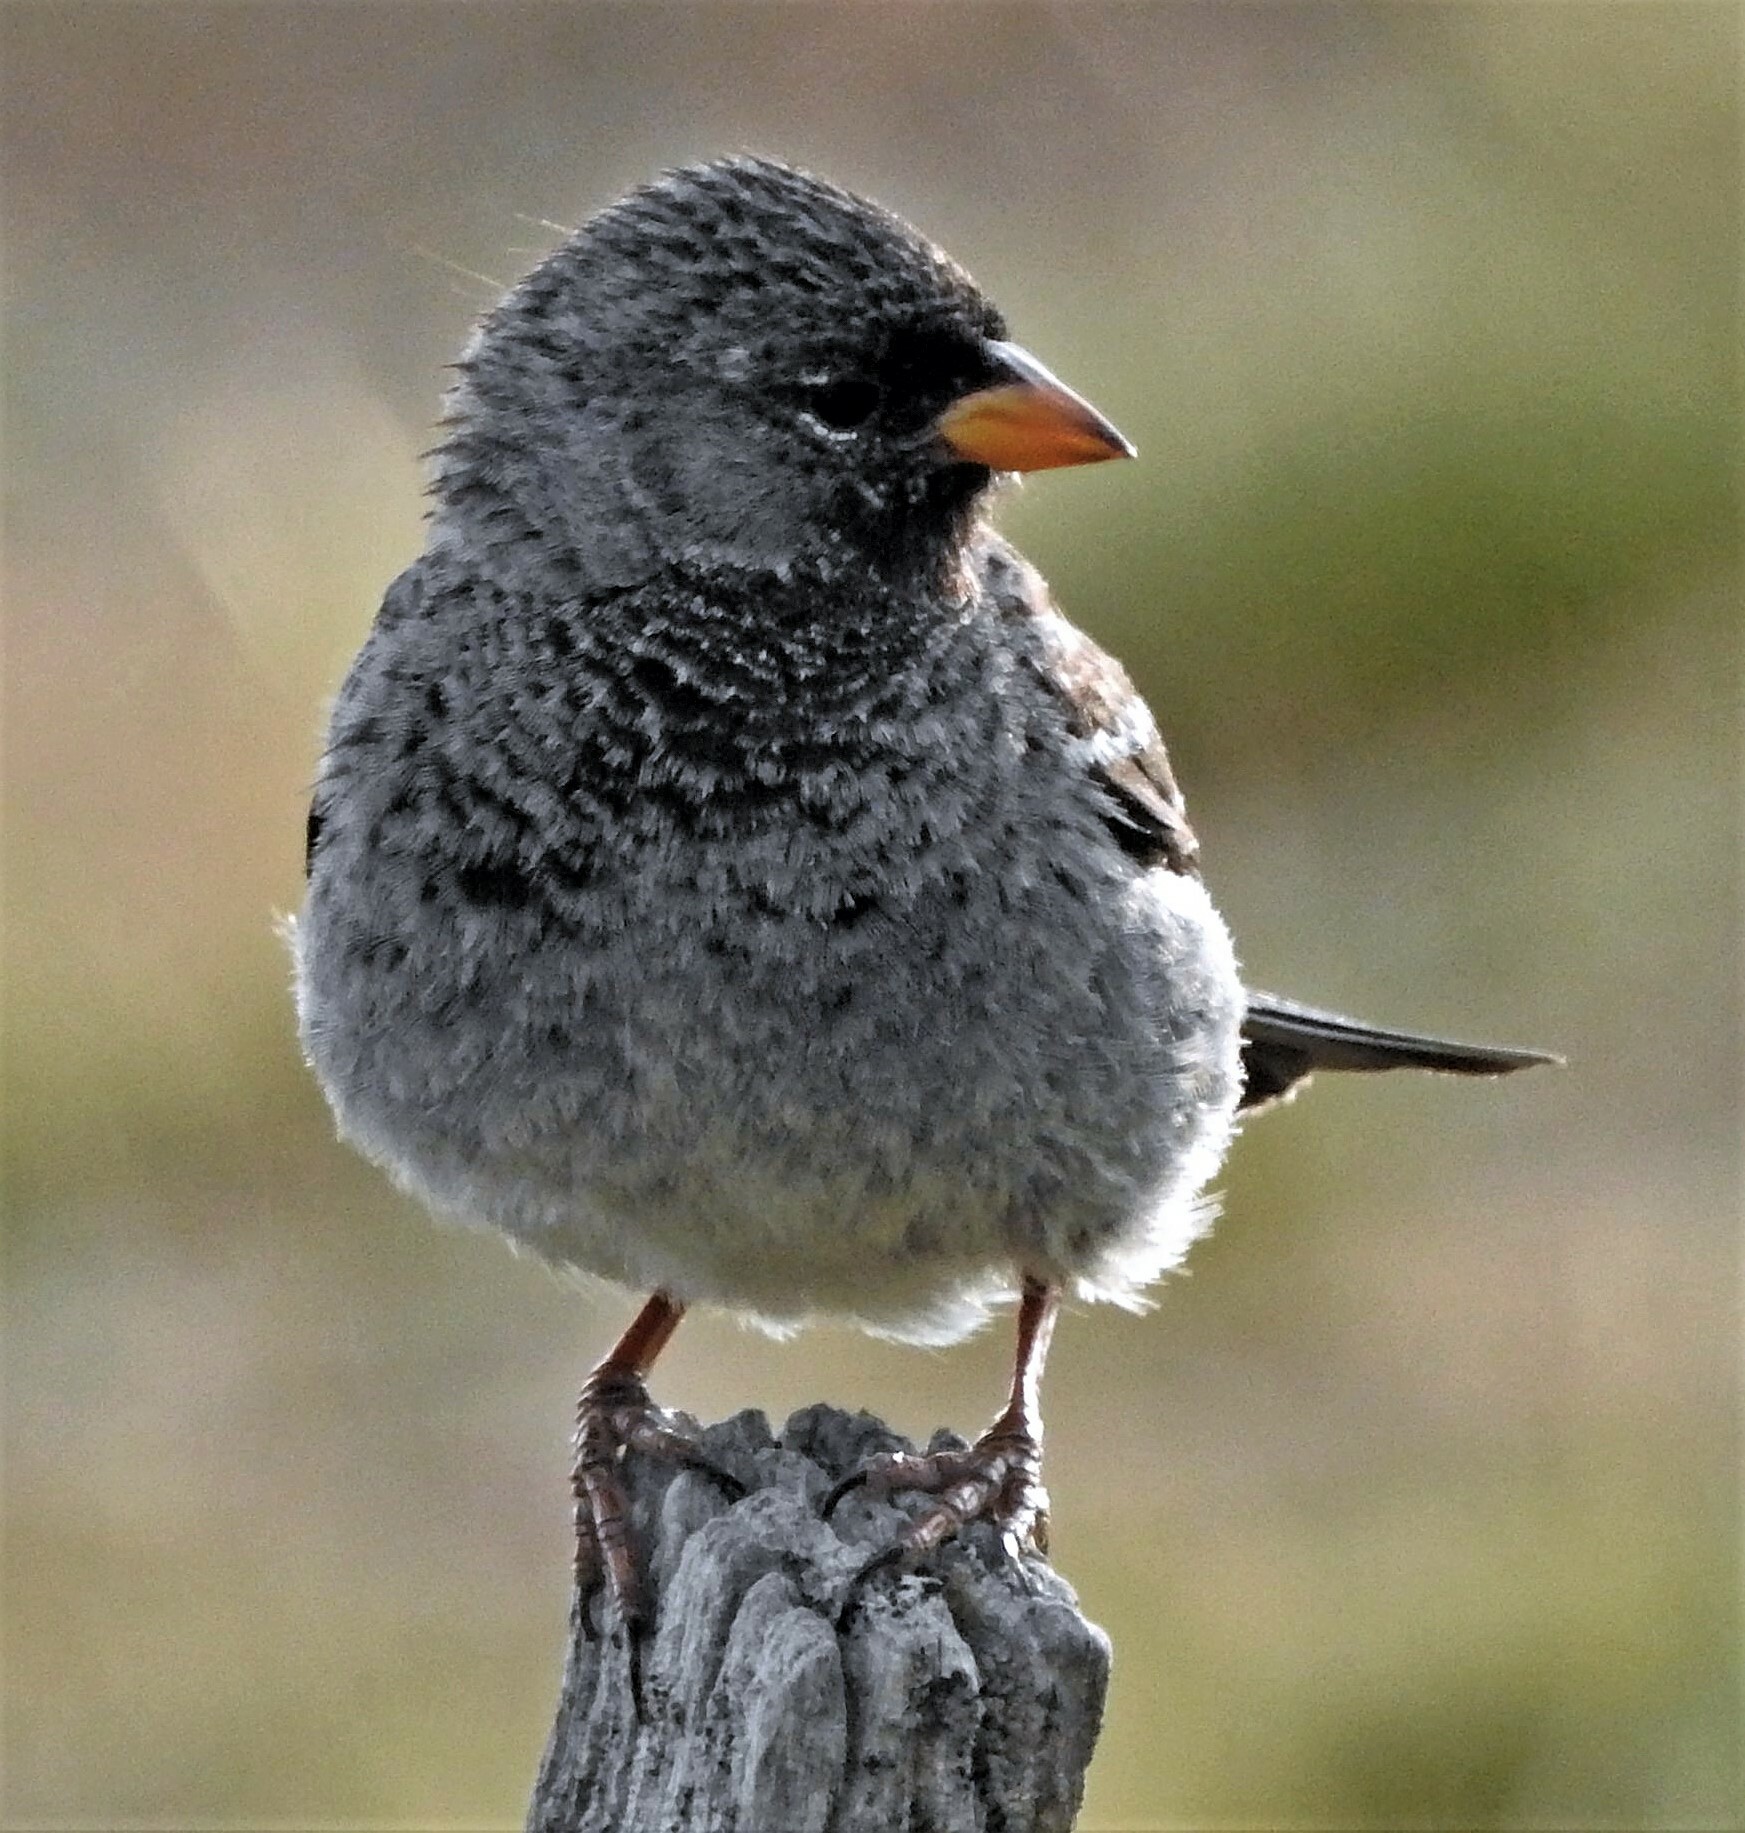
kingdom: Animalia
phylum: Chordata
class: Aves
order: Passeriformes
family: Thraupidae
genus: Rhopospina
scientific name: Rhopospina fruticeti
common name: Mourning sierra finch
